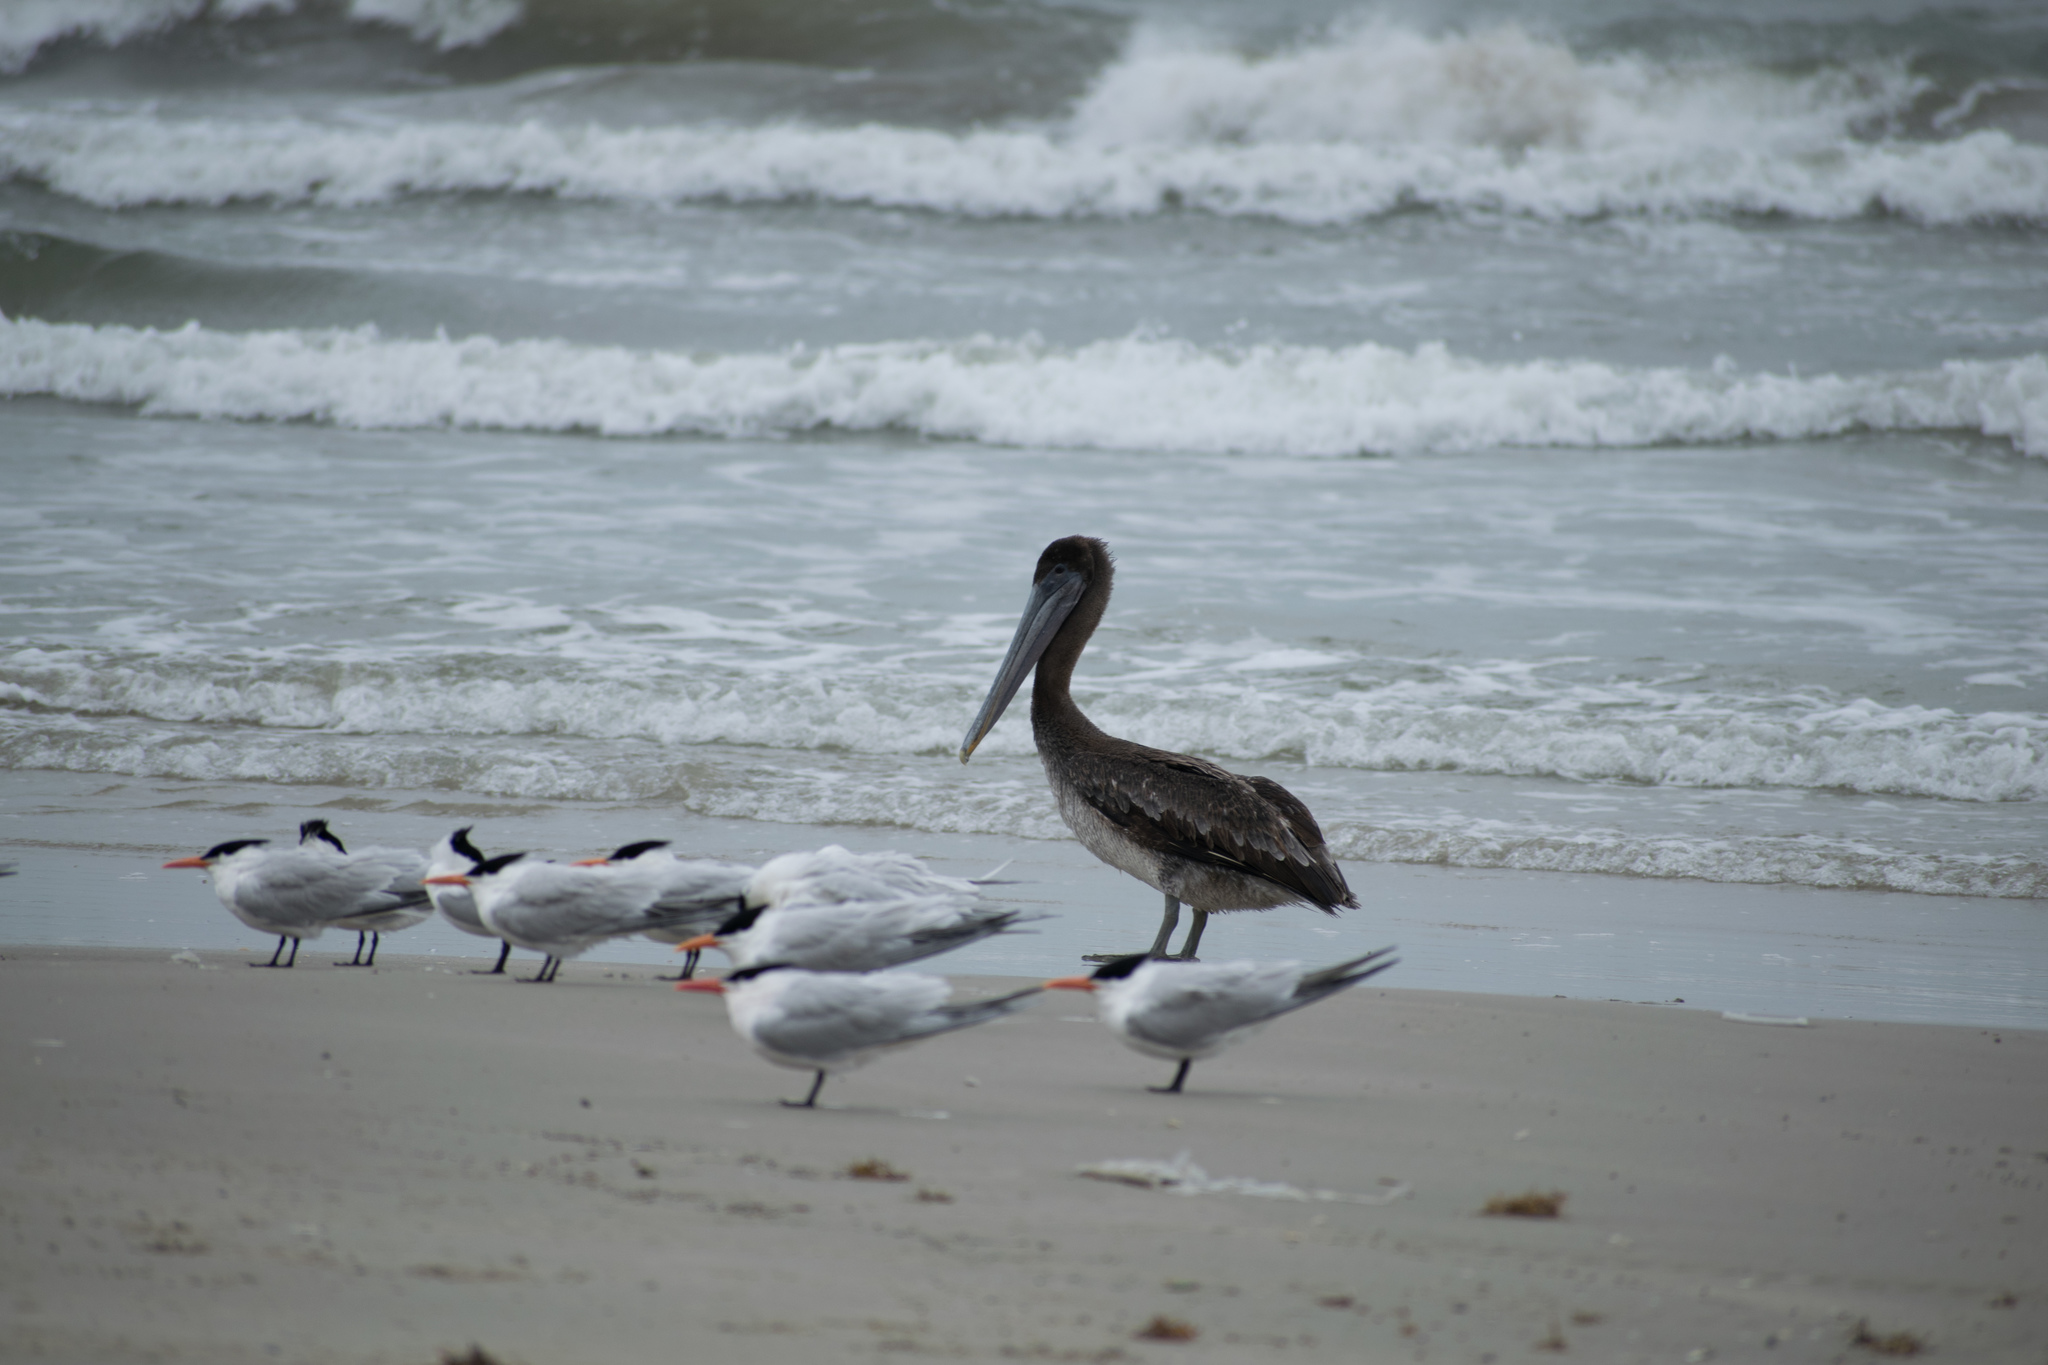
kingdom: Animalia
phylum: Chordata
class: Aves
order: Pelecaniformes
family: Pelecanidae
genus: Pelecanus
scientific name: Pelecanus occidentalis
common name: Brown pelican
